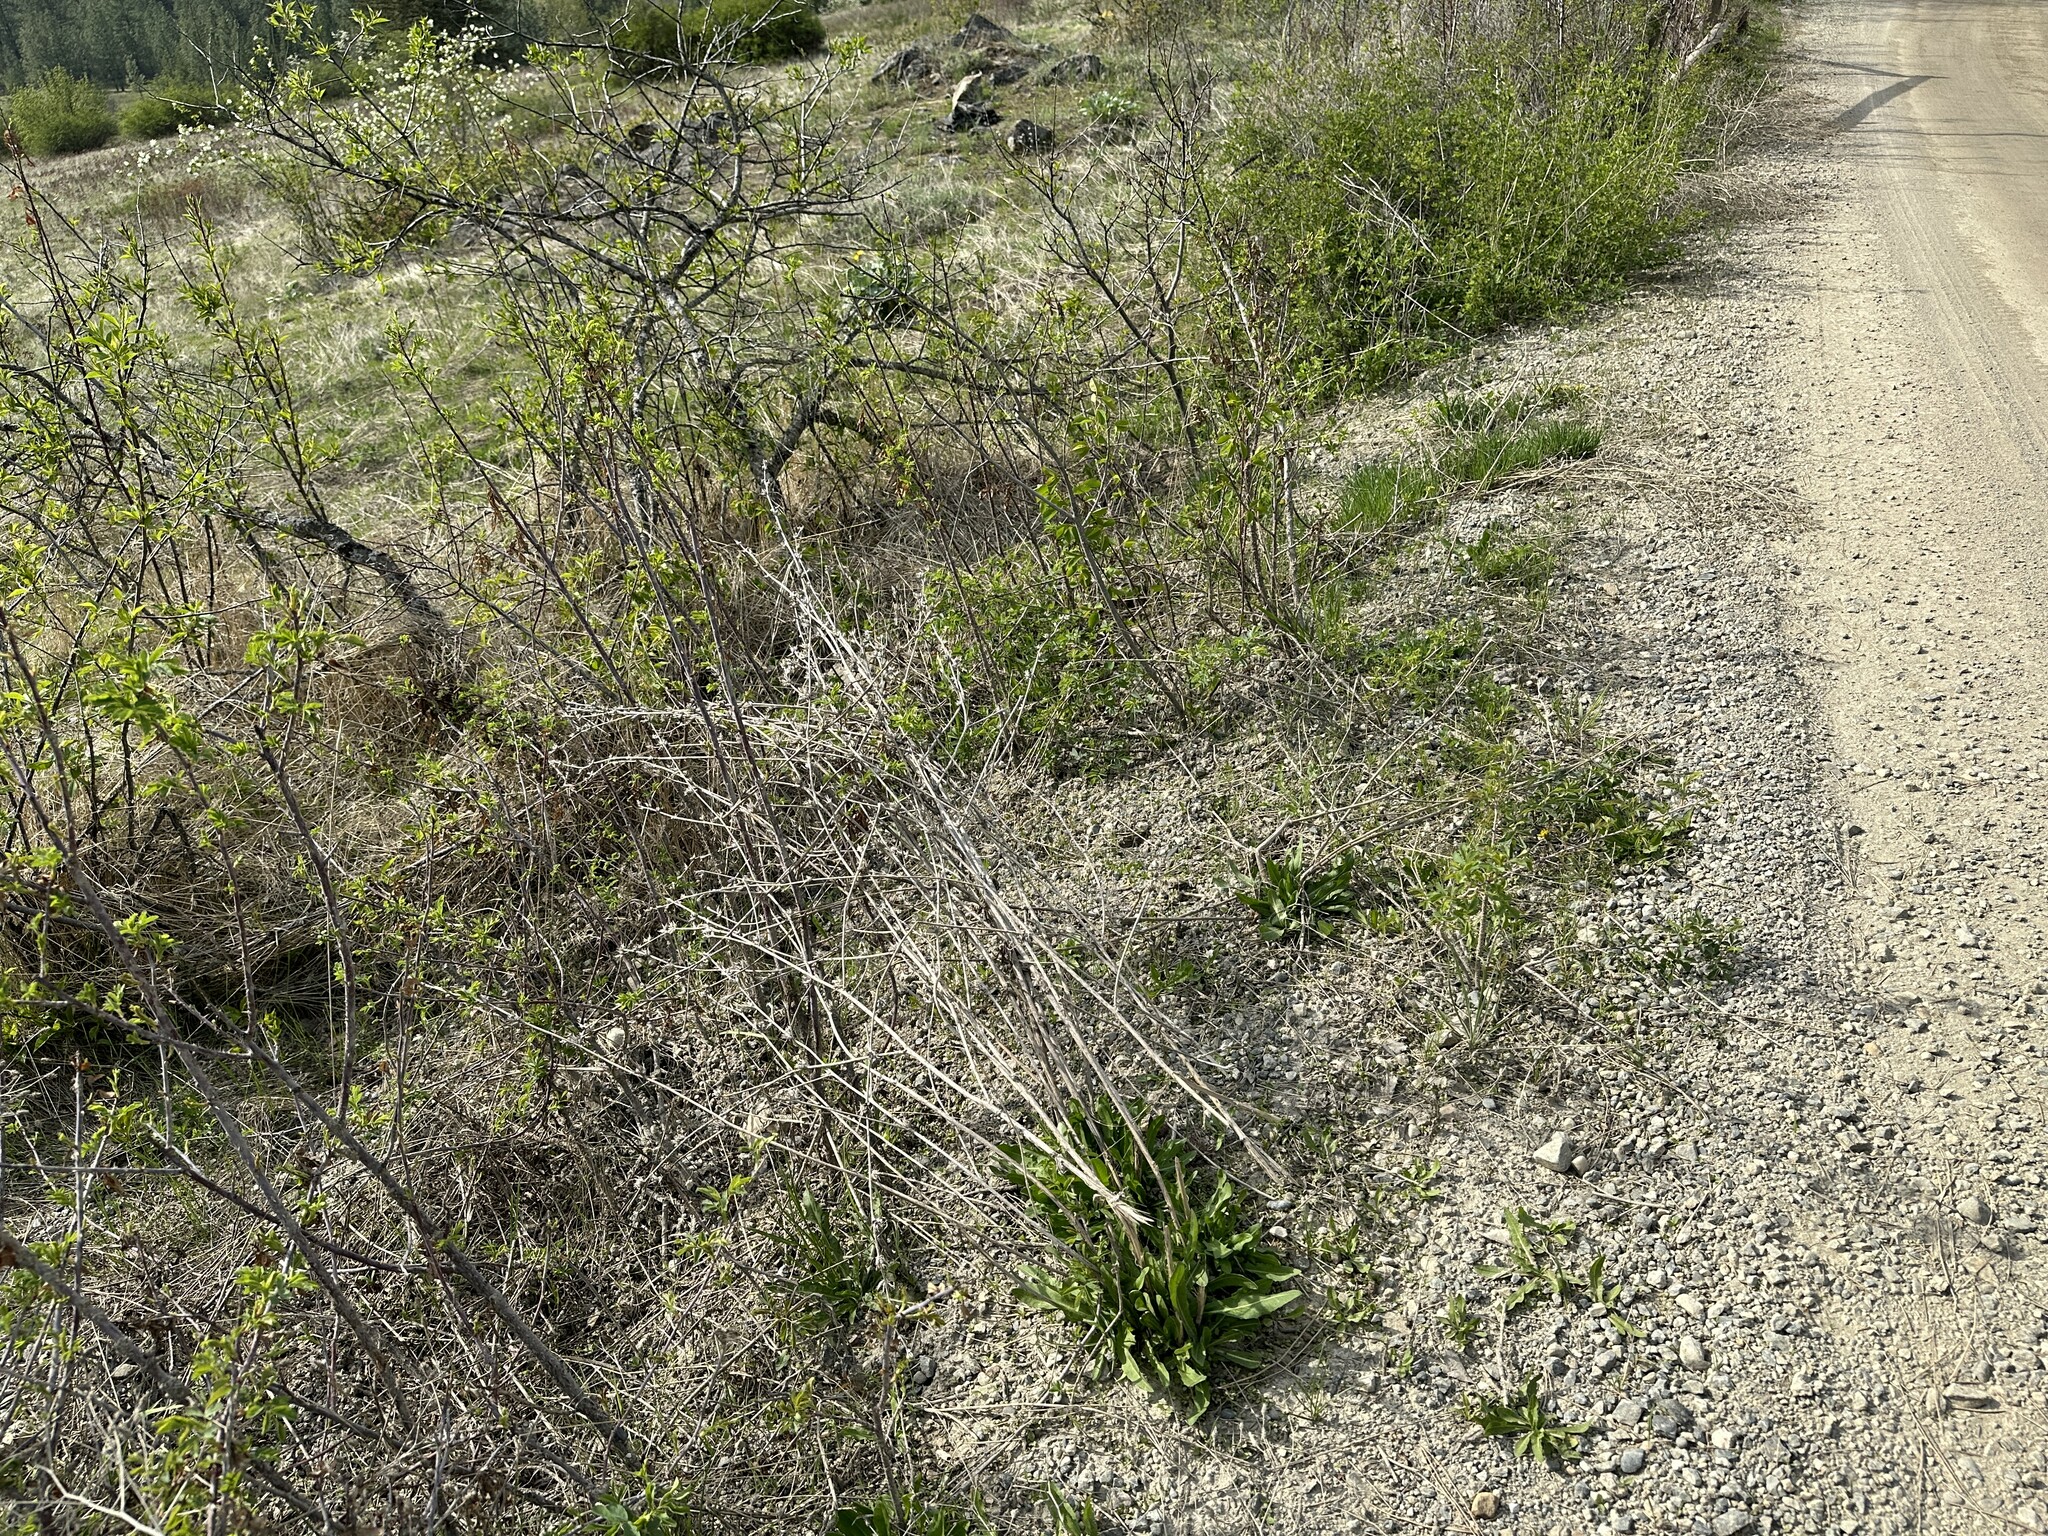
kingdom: Plantae
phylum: Tracheophyta
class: Magnoliopsida
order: Asterales
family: Asteraceae
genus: Cichorium
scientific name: Cichorium intybus
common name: Chicory
